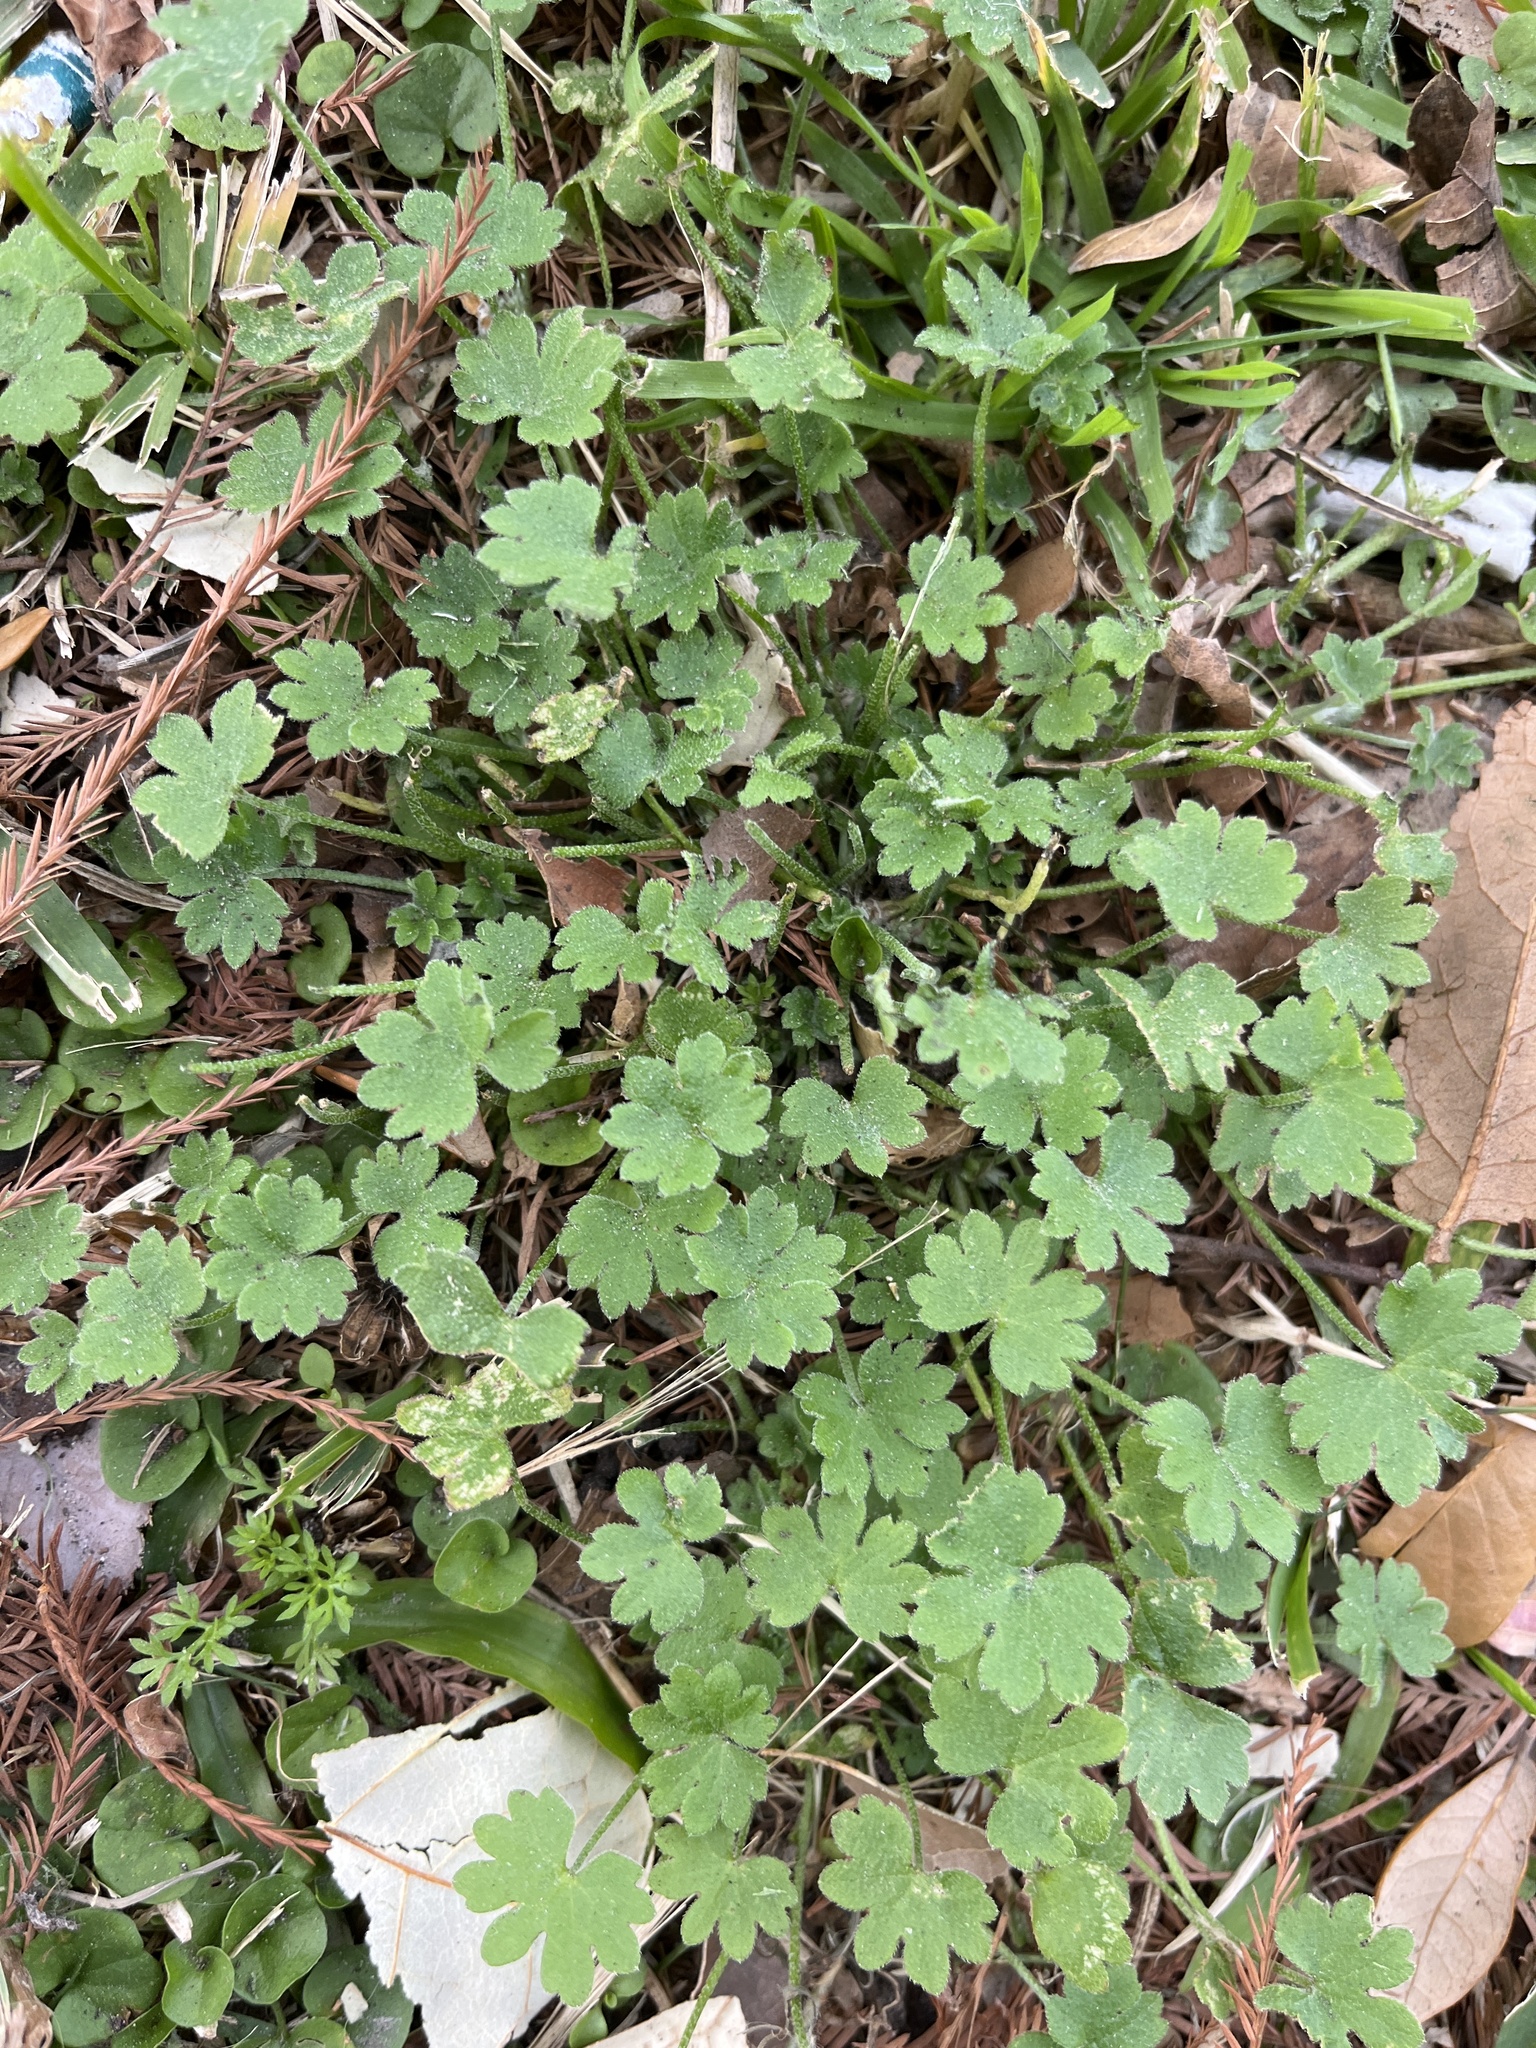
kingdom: Plantae
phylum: Tracheophyta
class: Magnoliopsida
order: Apiales
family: Apiaceae
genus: Bowlesia
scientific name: Bowlesia incana
